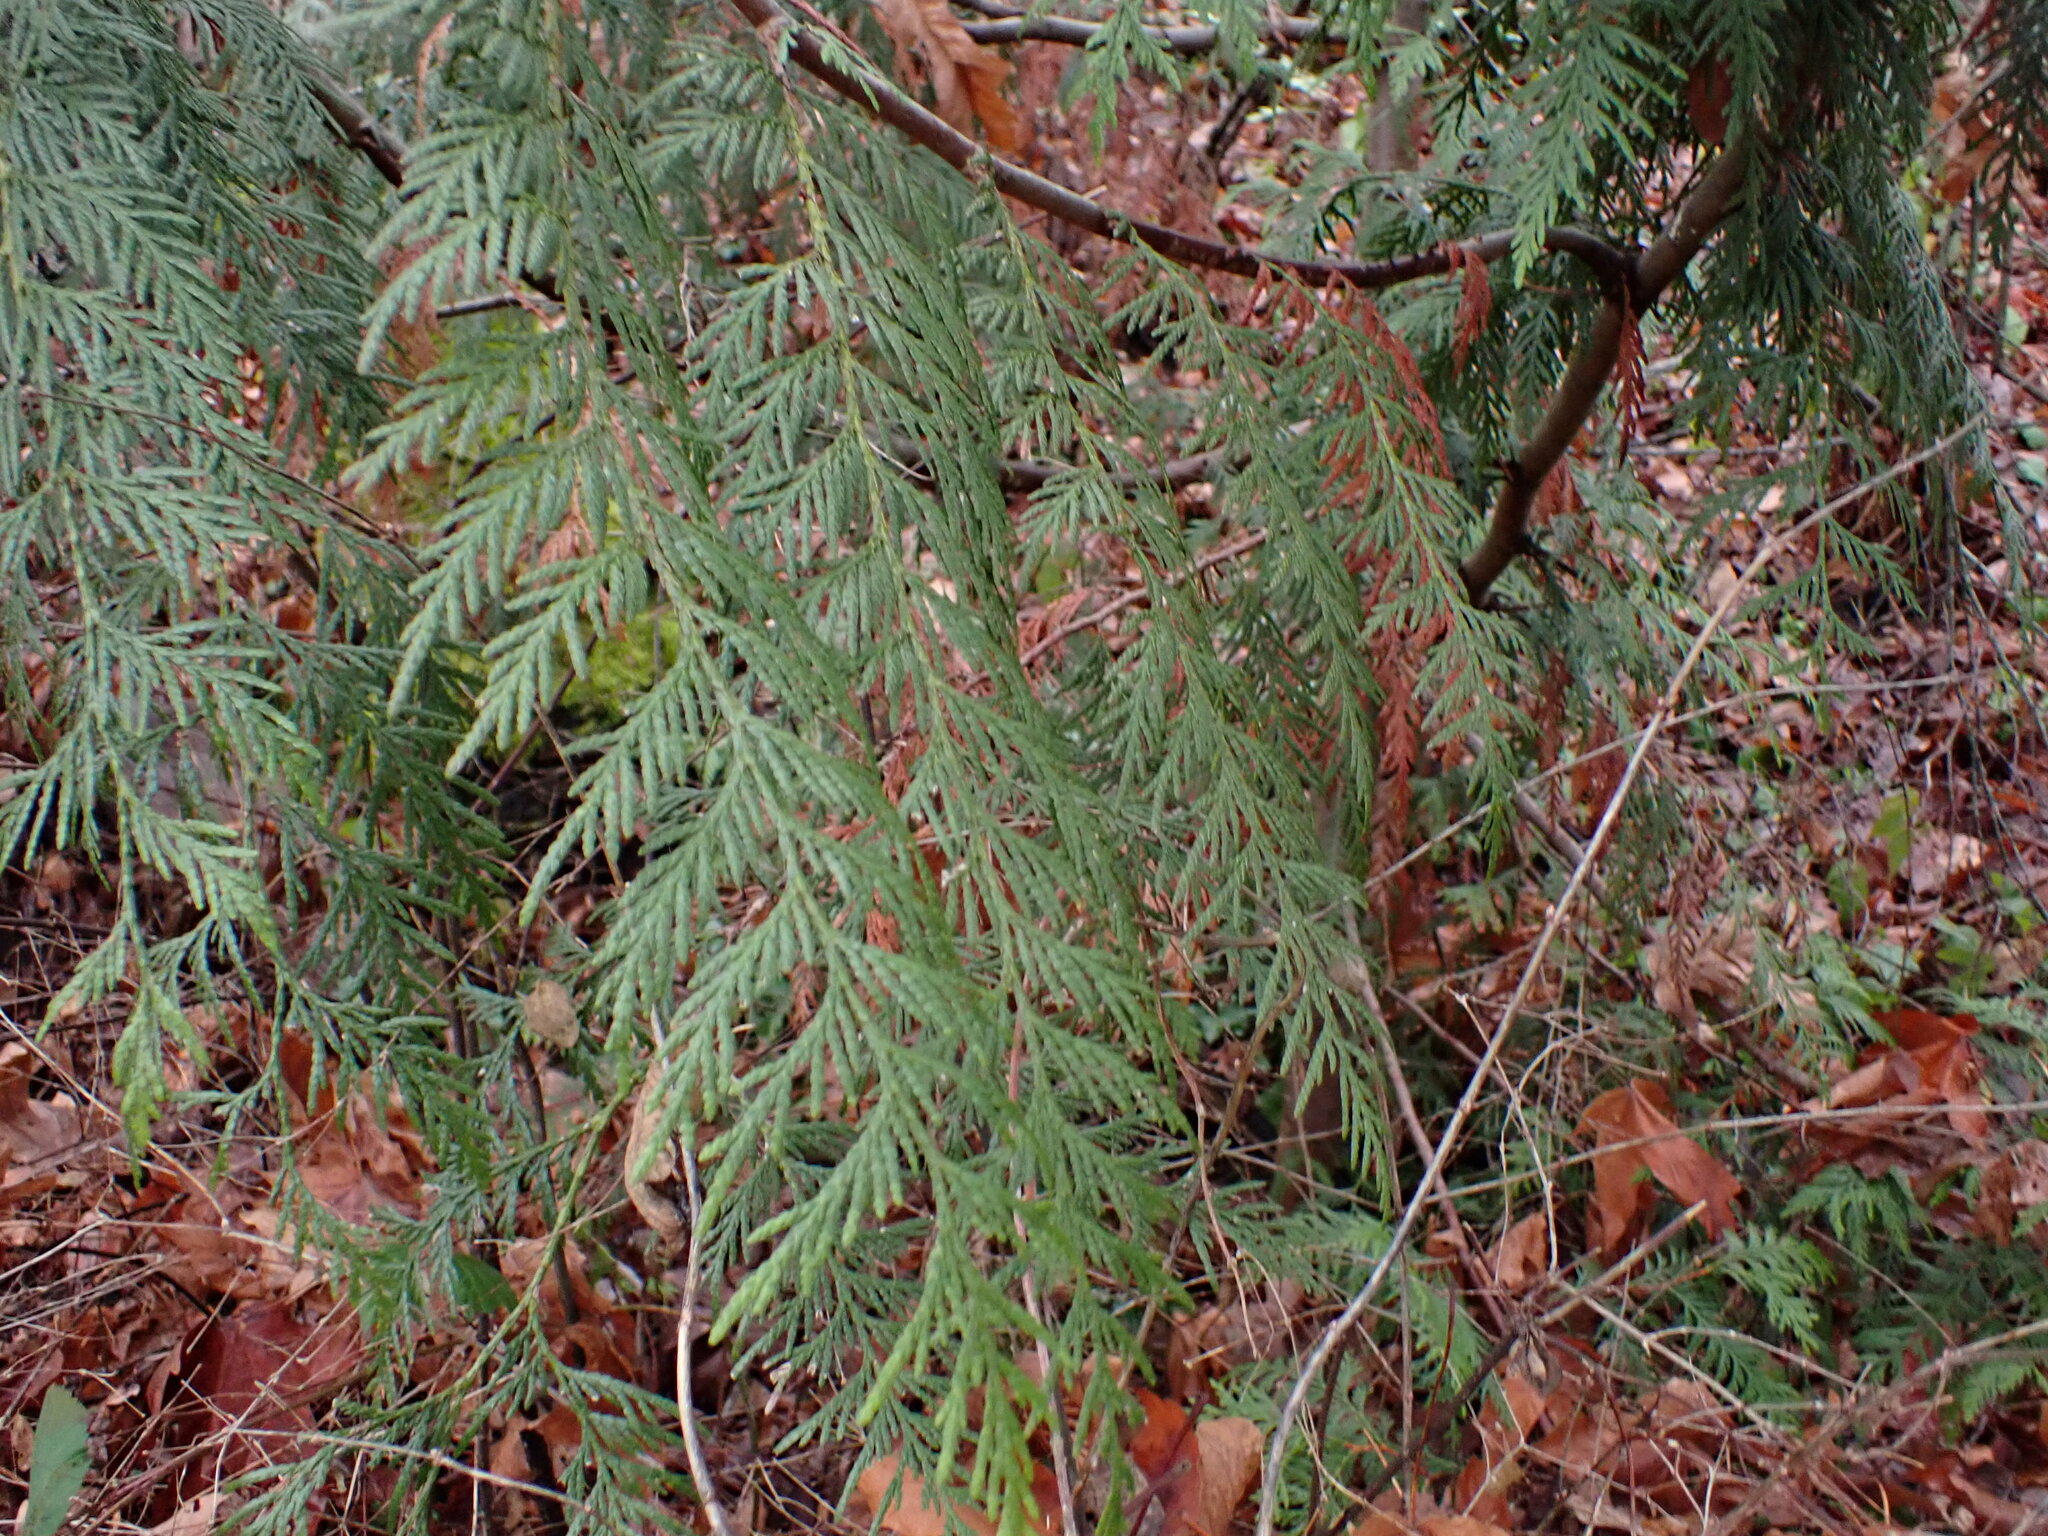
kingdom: Plantae
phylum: Tracheophyta
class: Pinopsida
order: Pinales
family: Cupressaceae
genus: Thuja
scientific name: Thuja plicata
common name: Western red-cedar
